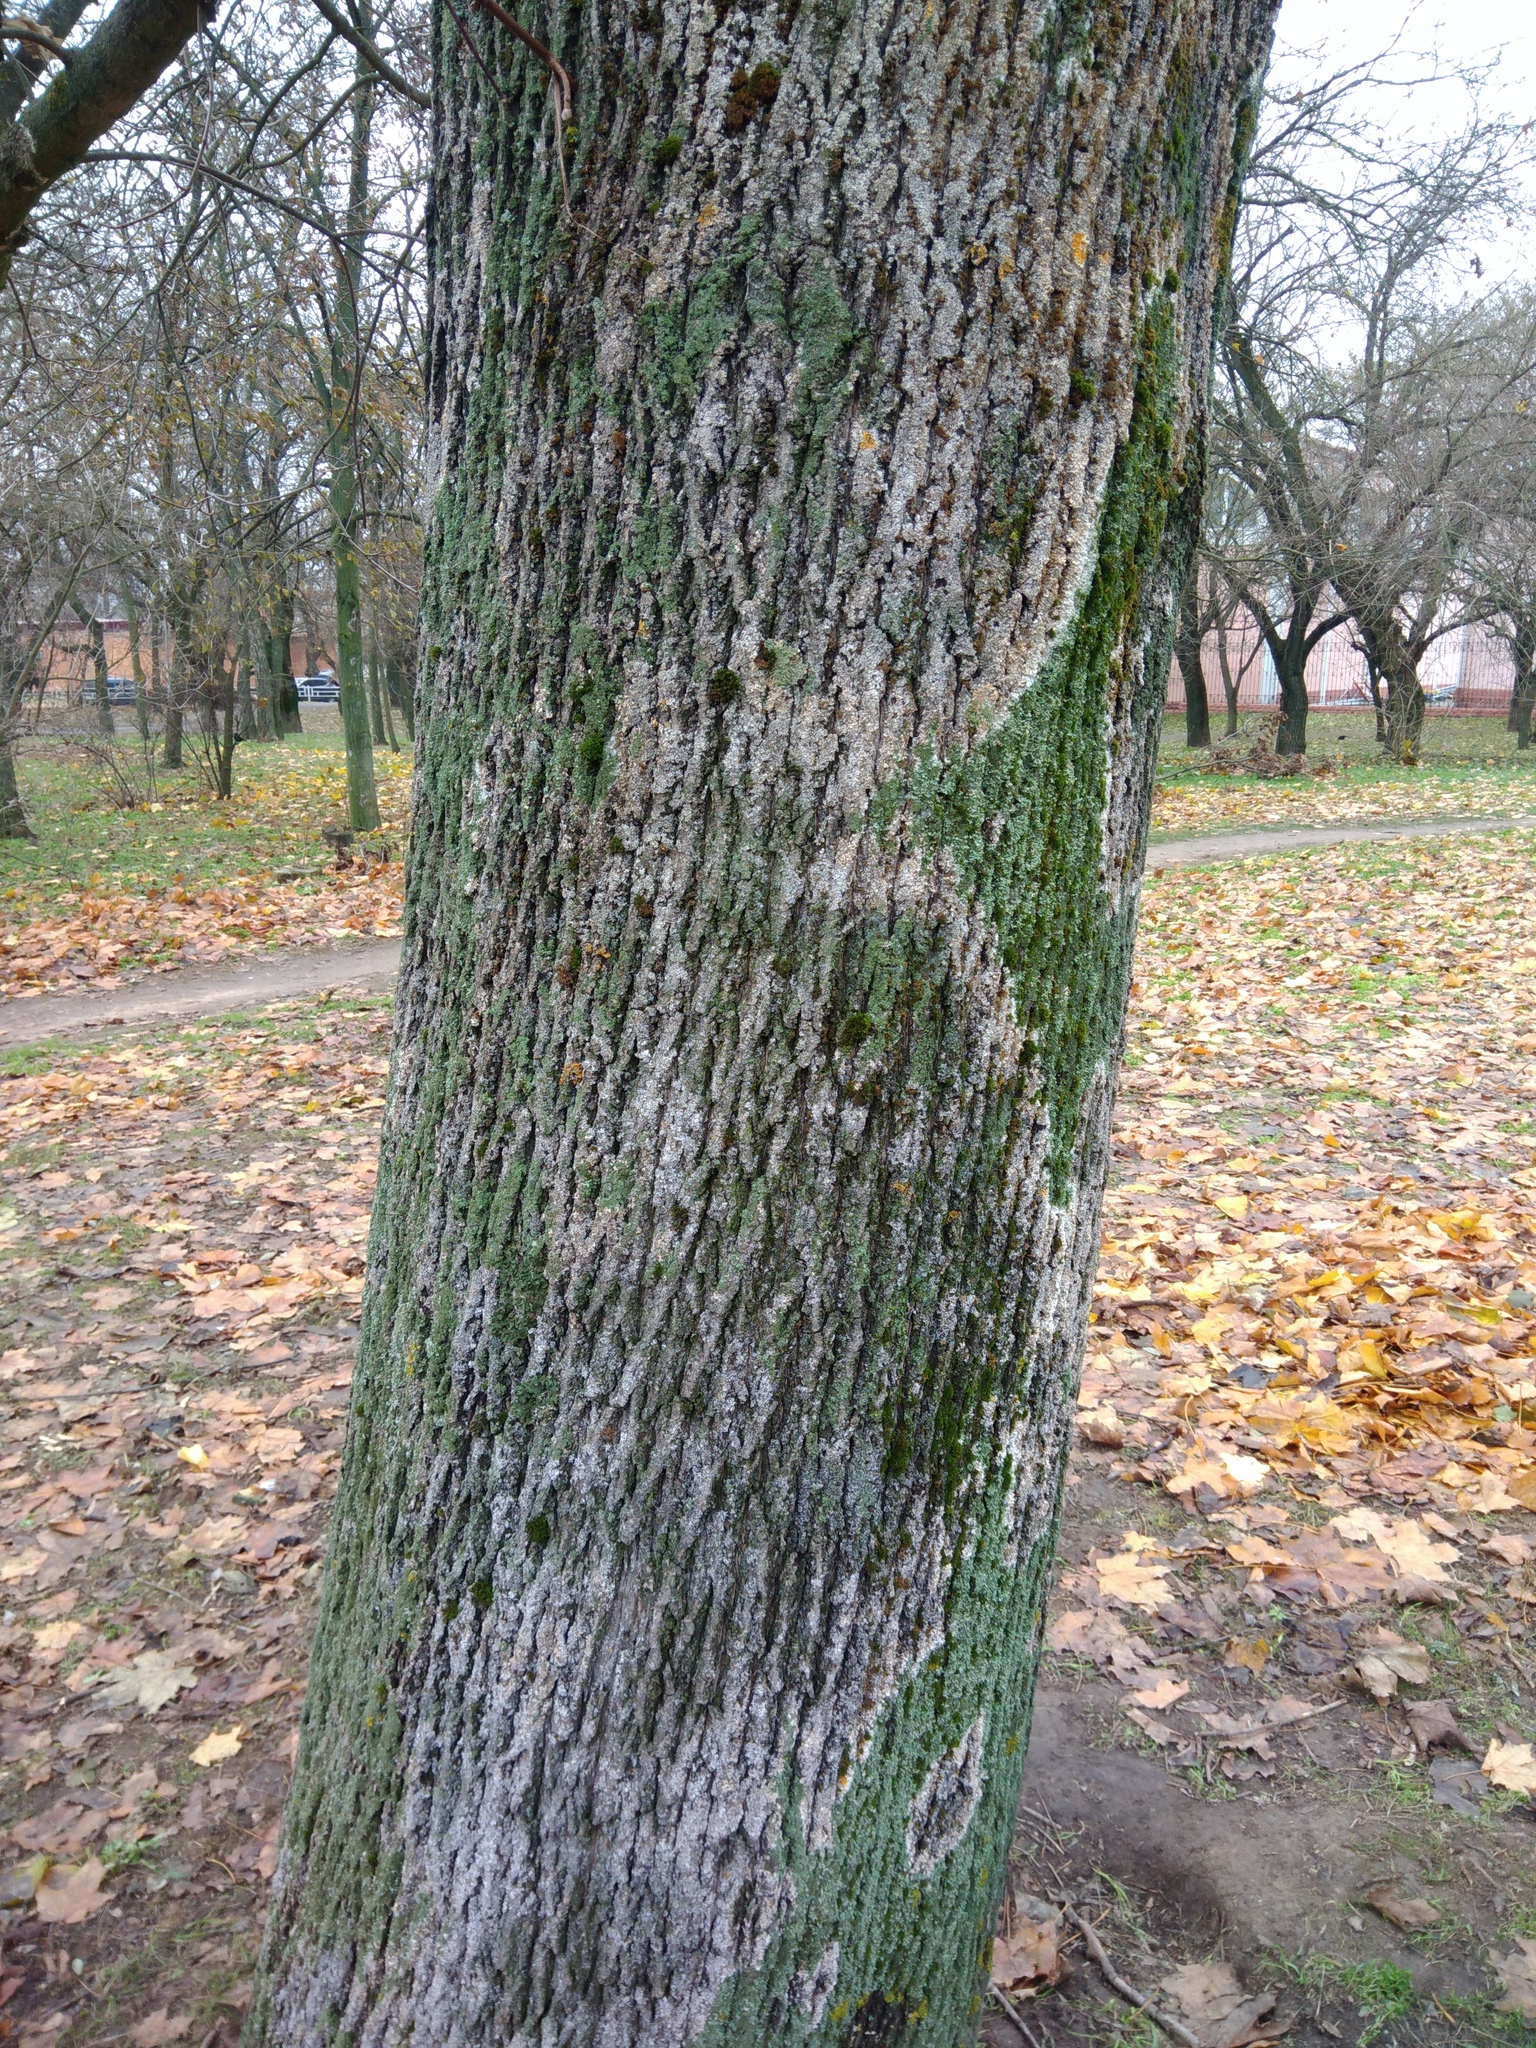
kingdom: Fungi
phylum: Basidiomycota
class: Agaricomycetes
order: Atheliales
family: Atheliaceae
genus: Athelia
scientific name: Athelia arachnoidea
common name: Candelabra duster
